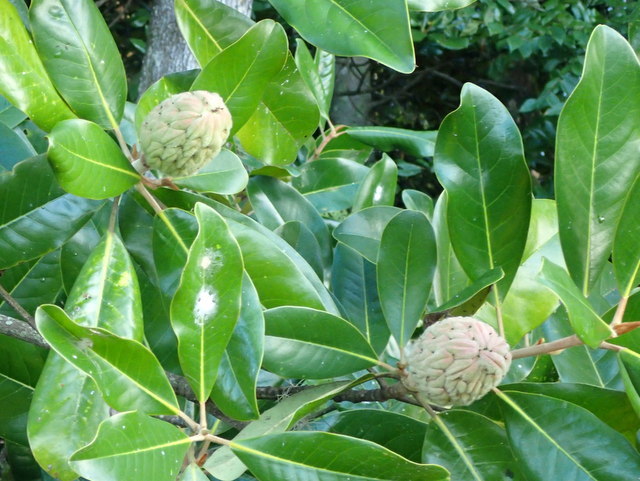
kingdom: Plantae
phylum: Tracheophyta
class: Magnoliopsida
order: Magnoliales
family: Magnoliaceae
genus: Magnolia
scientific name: Magnolia grandiflora
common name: Southern magnolia
